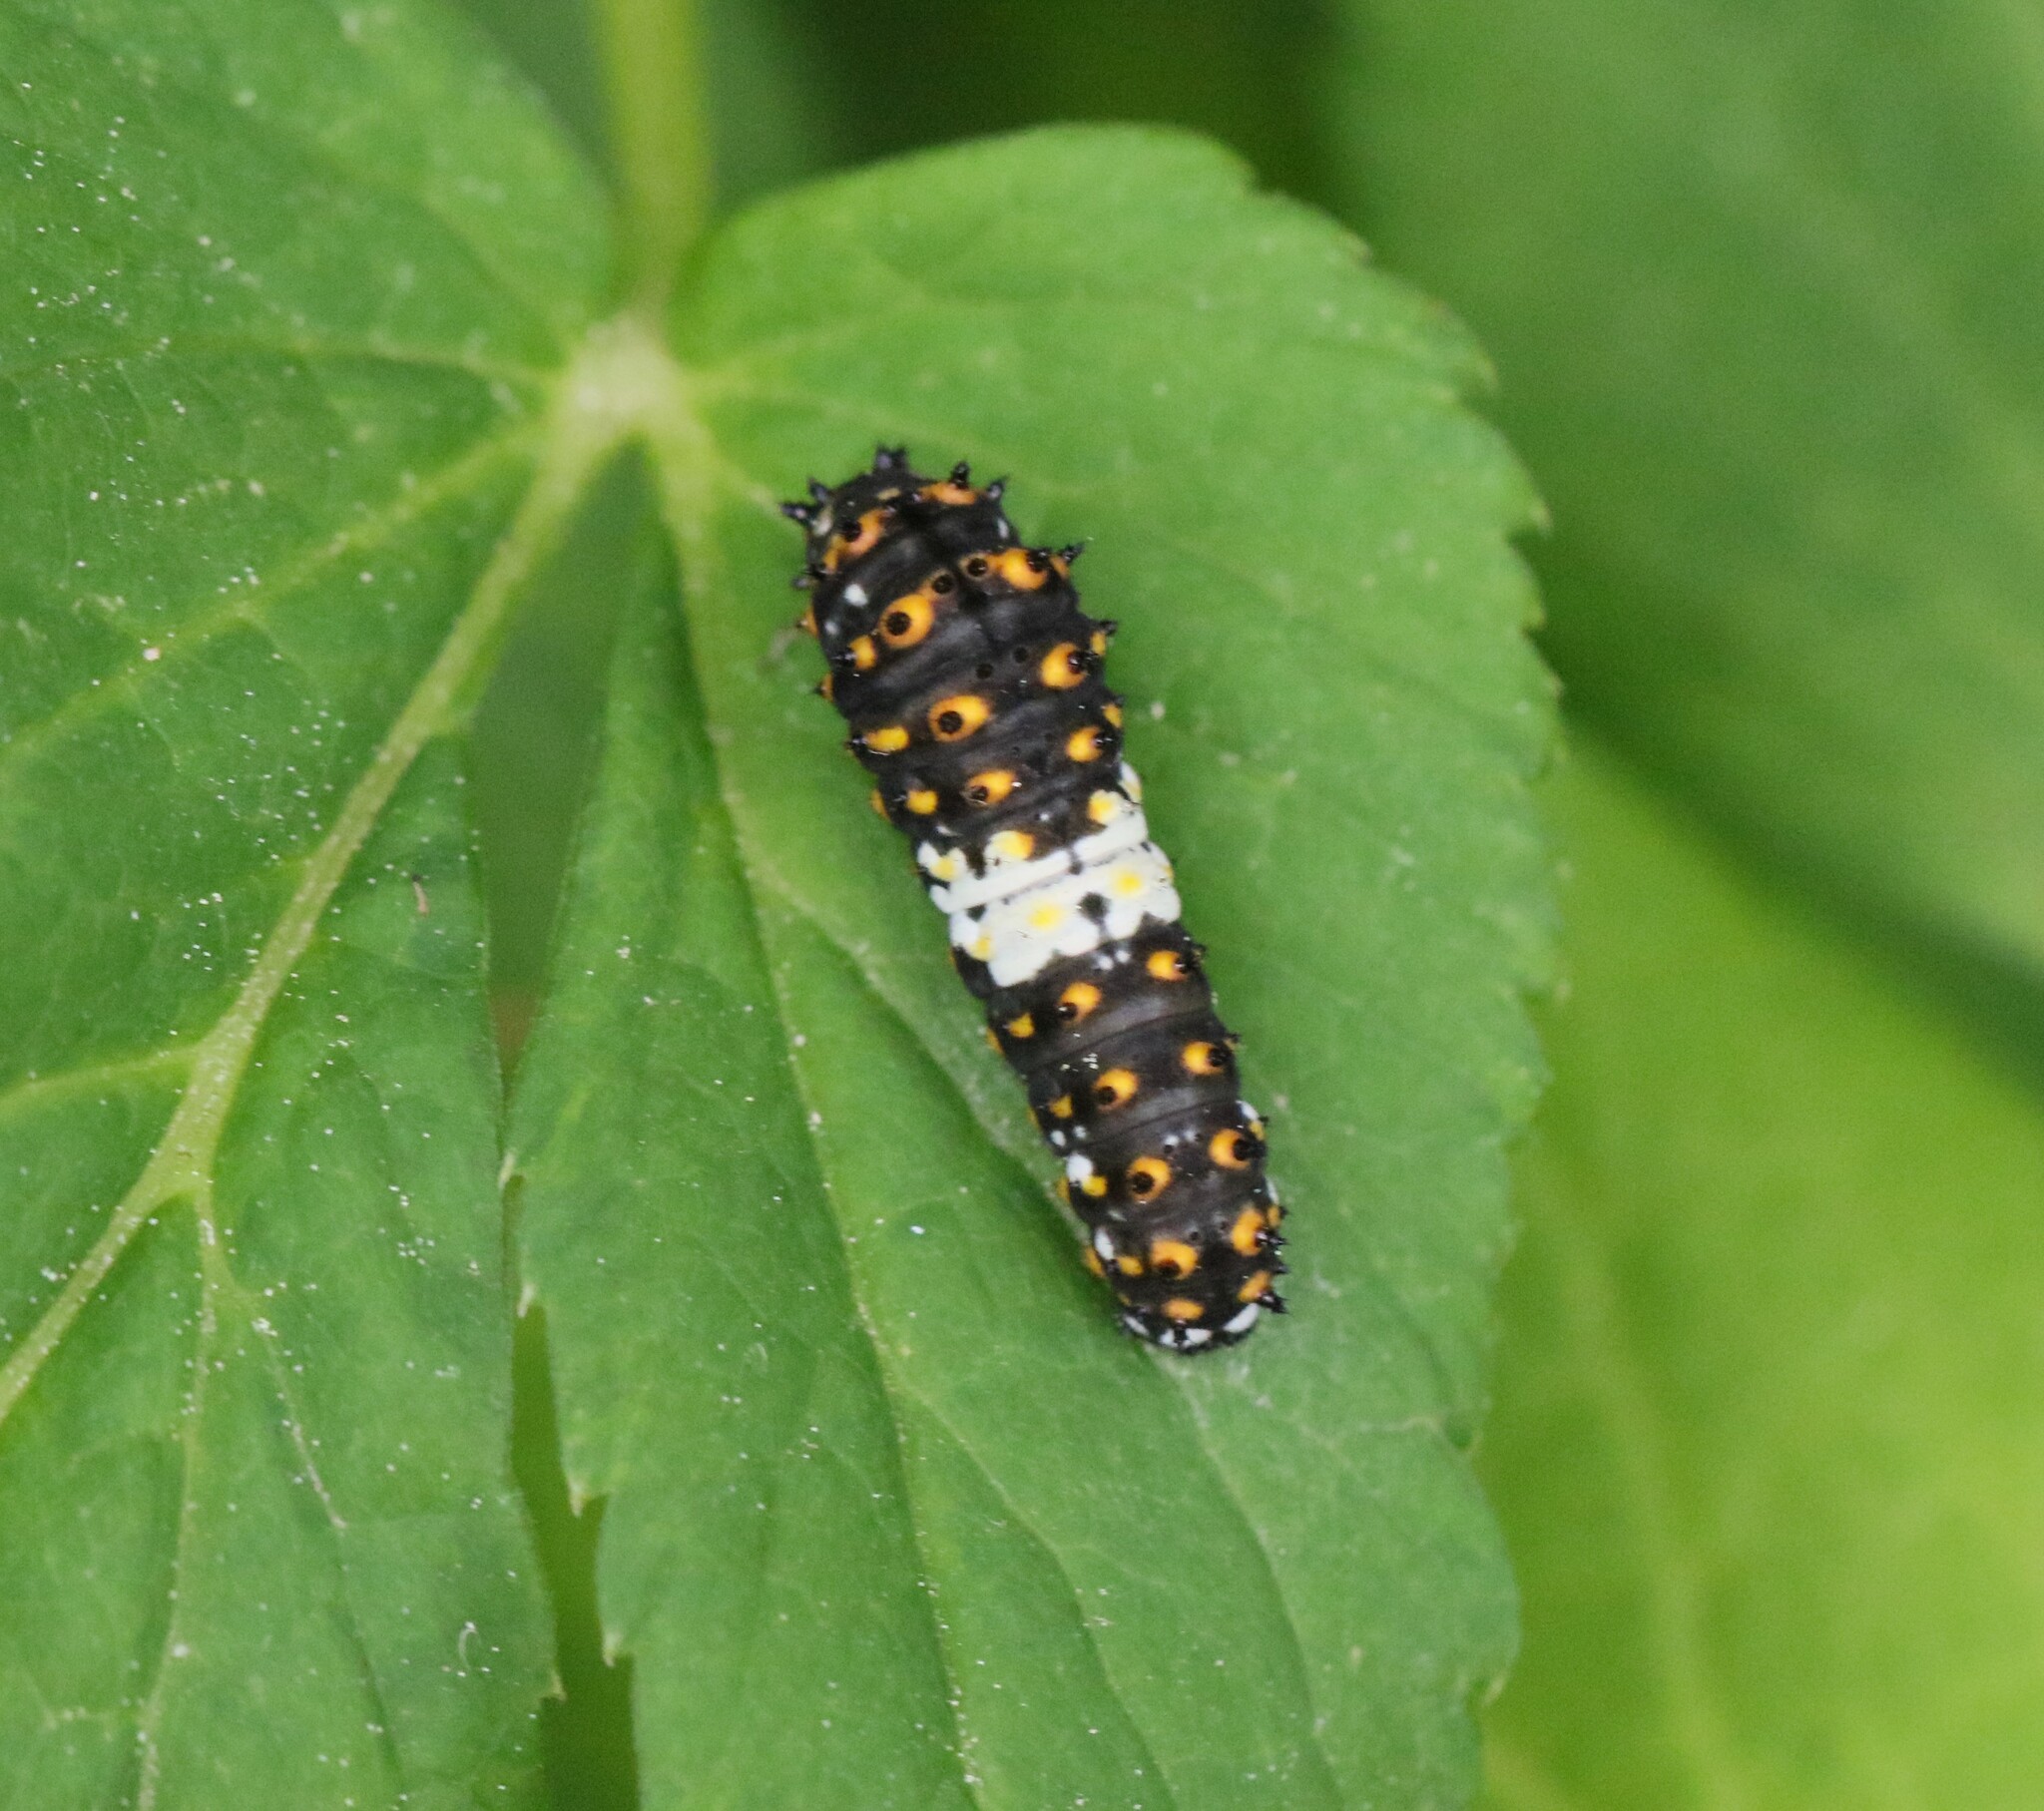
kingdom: Animalia
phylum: Arthropoda
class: Insecta
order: Lepidoptera
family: Papilionidae
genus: Papilio
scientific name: Papilio polyxenes
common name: Black swallowtail
